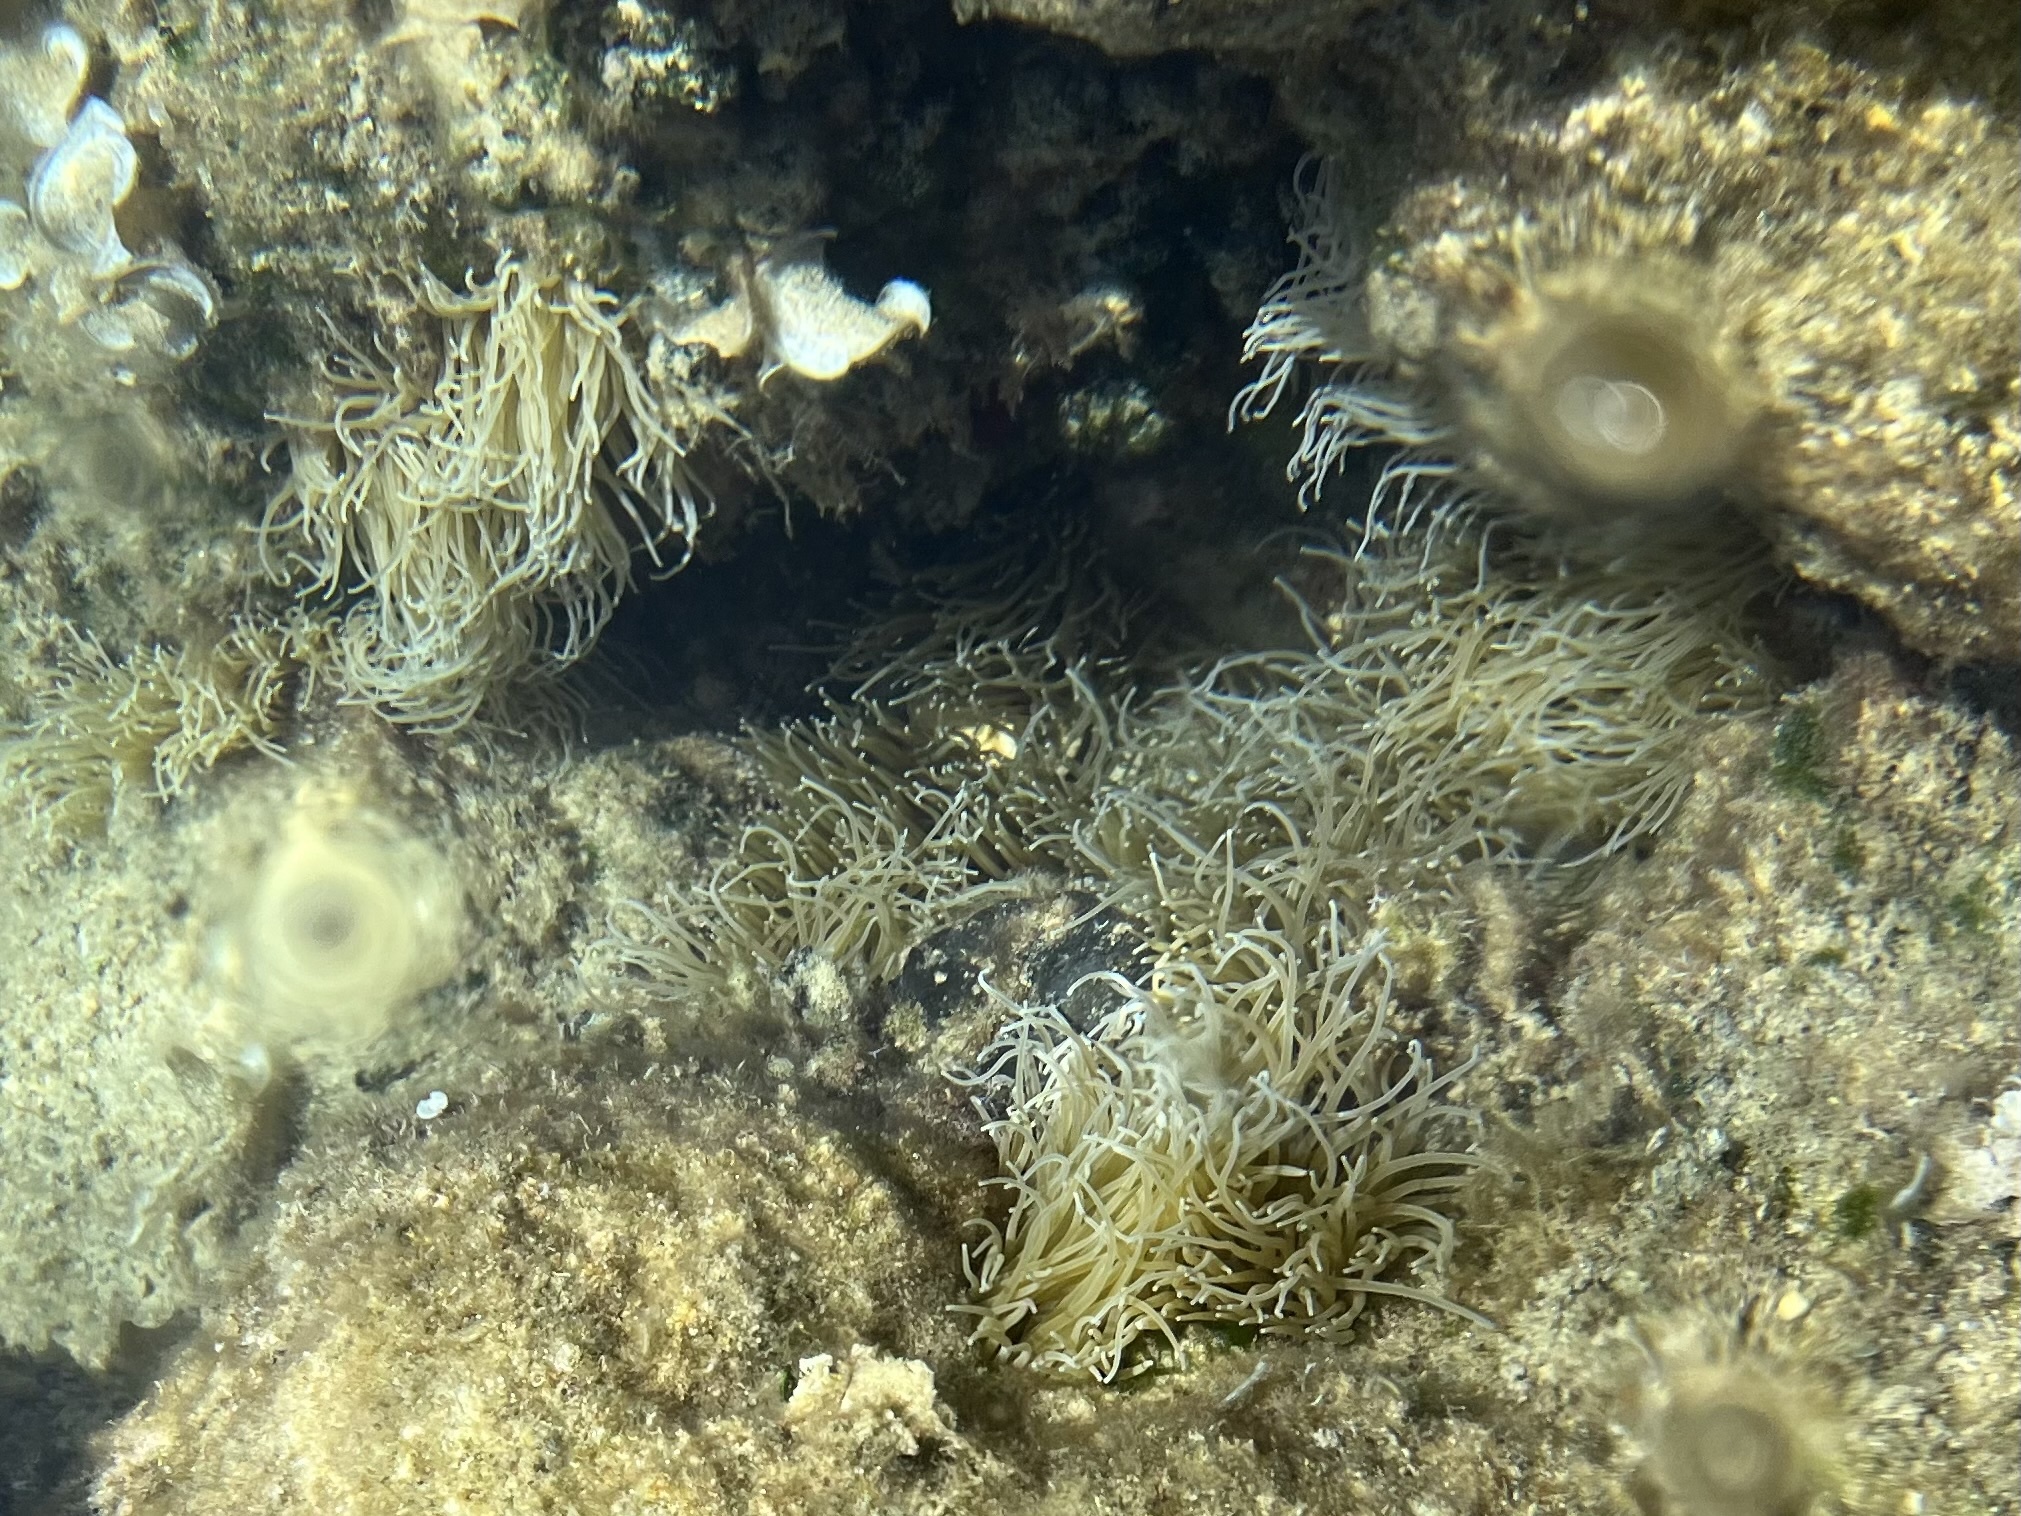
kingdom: Animalia
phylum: Cnidaria
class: Anthozoa
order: Actiniaria
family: Actiniidae
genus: Anemonia
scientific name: Anemonia viridis
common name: Snakelocks anemone
